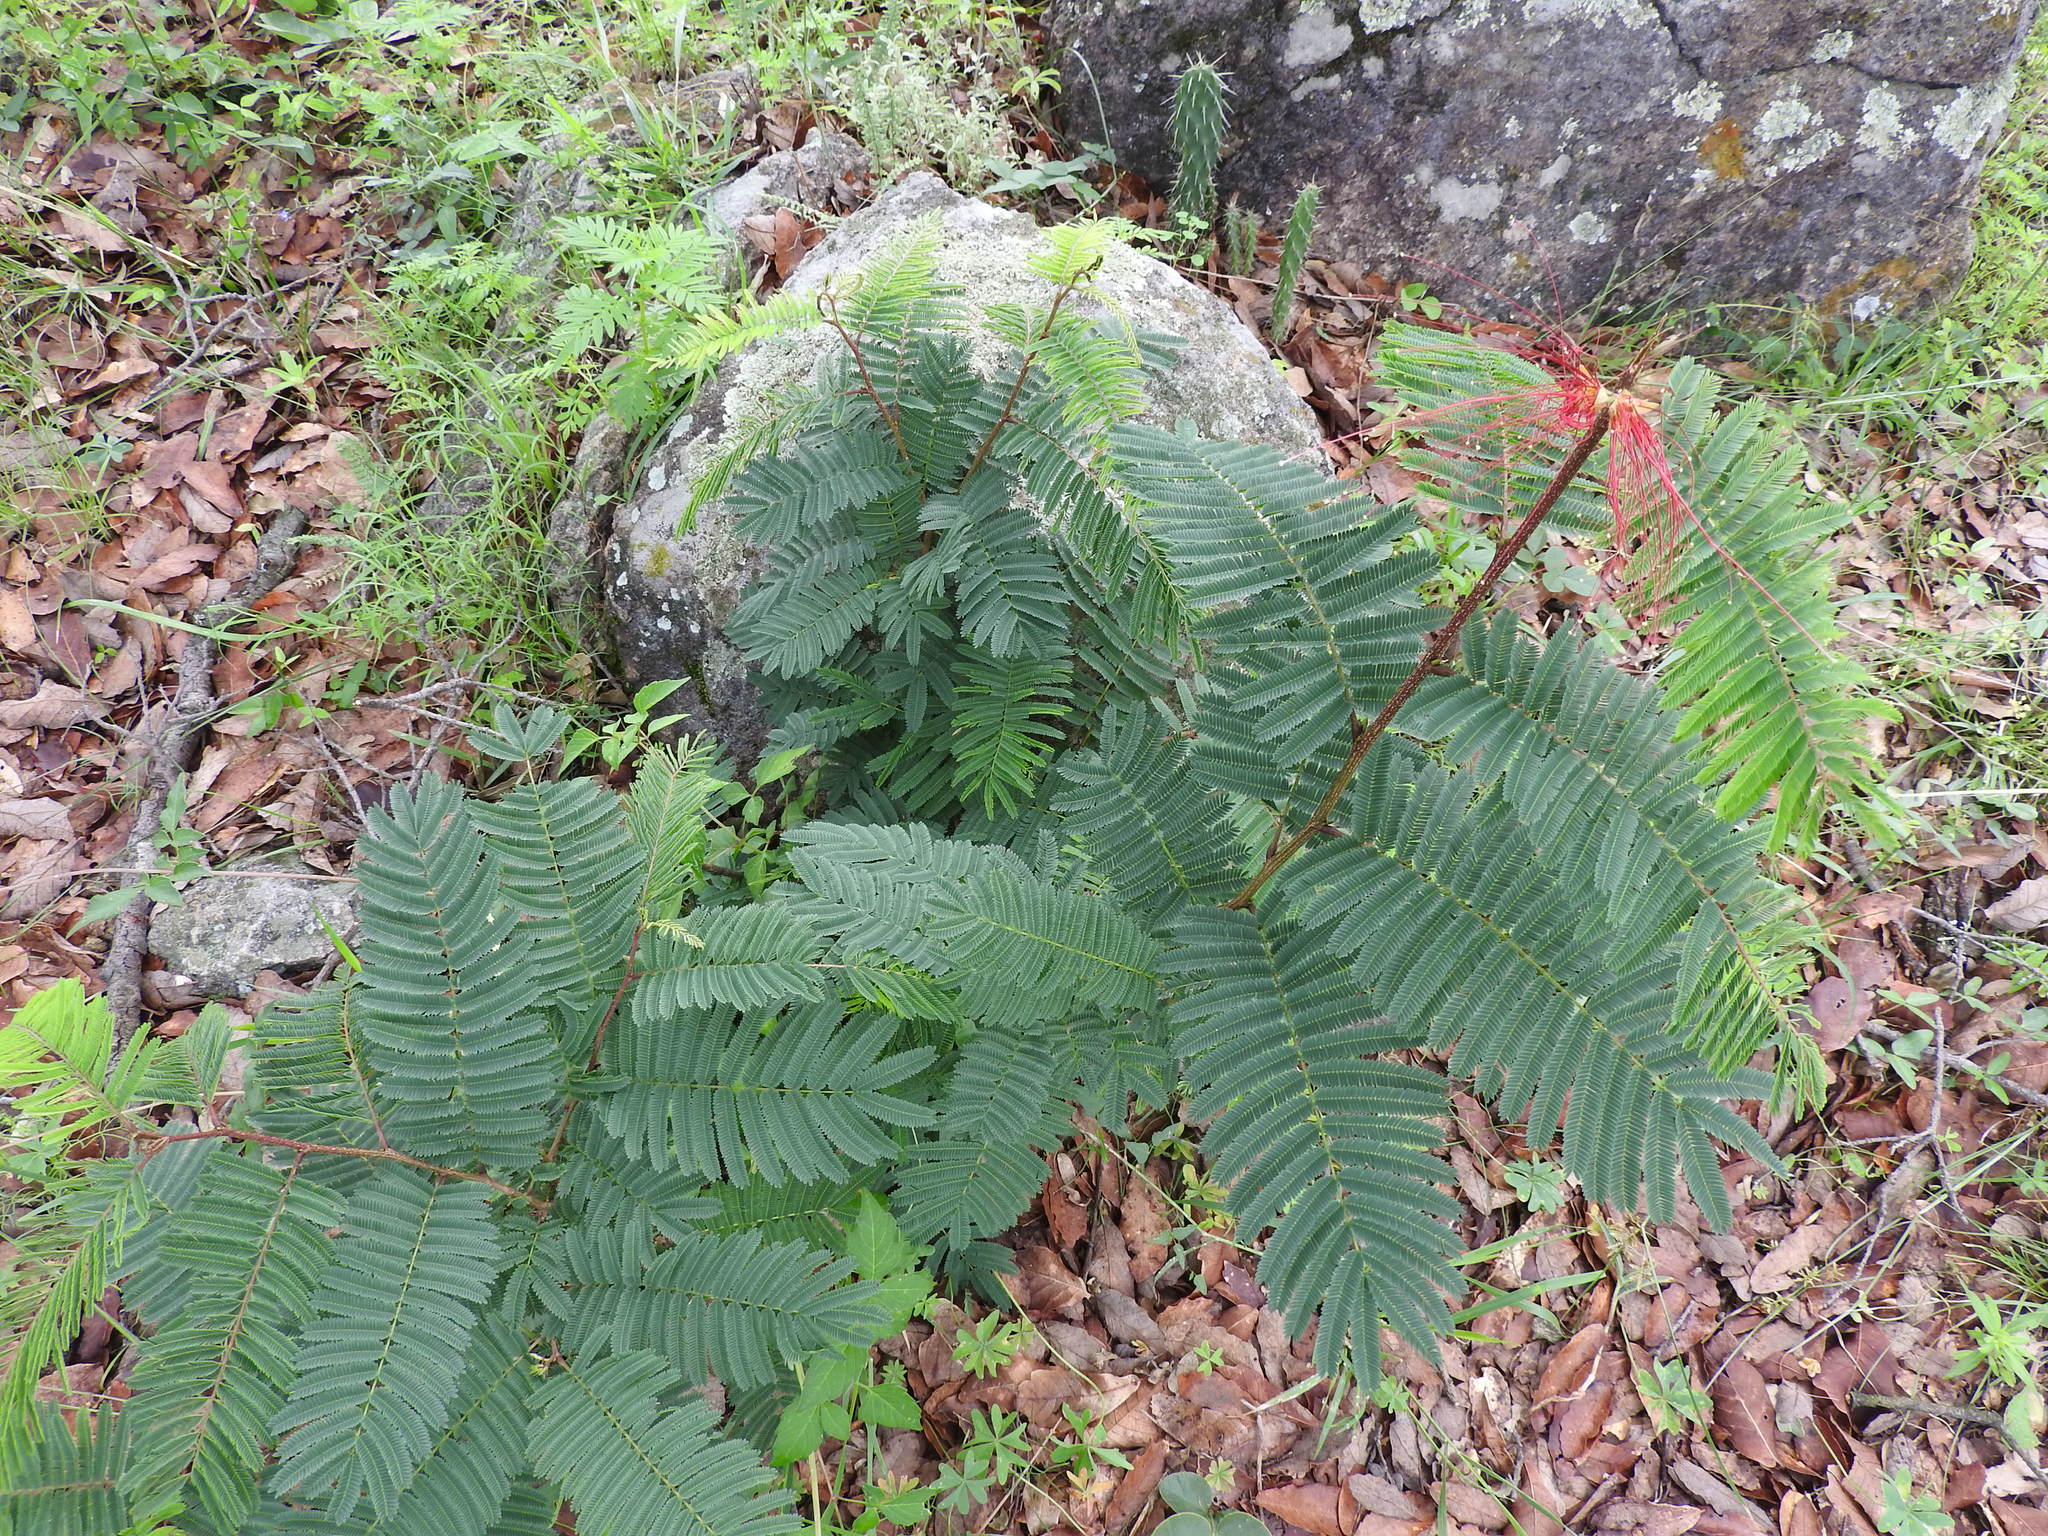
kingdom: Plantae
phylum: Tracheophyta
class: Magnoliopsida
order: Fabales
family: Fabaceae
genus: Calliandra
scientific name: Calliandra houstoniana
